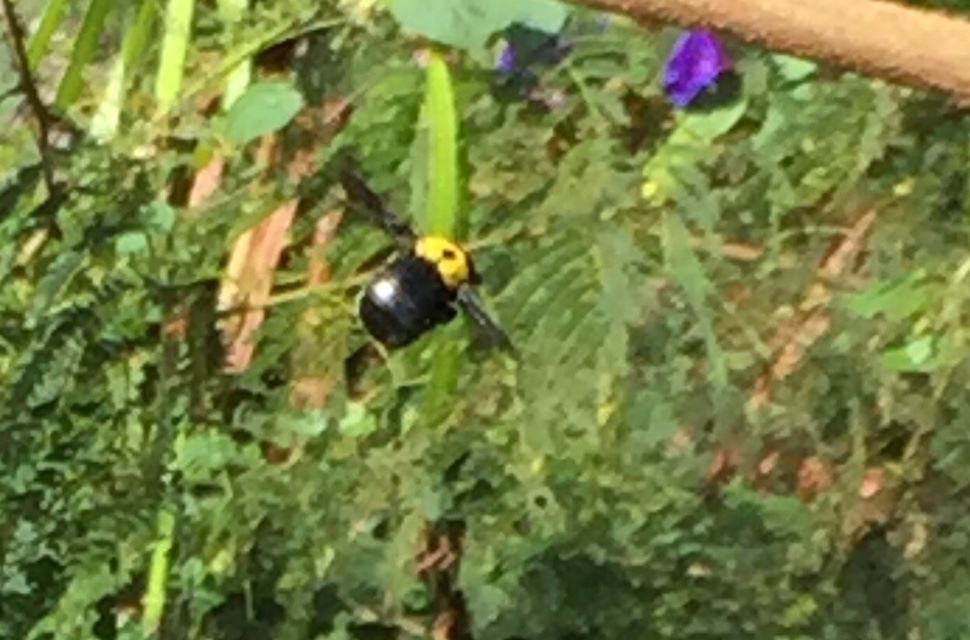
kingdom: Animalia
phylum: Arthropoda
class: Insecta
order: Hymenoptera
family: Apidae
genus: Xylocopa
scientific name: Xylocopa pubescens
